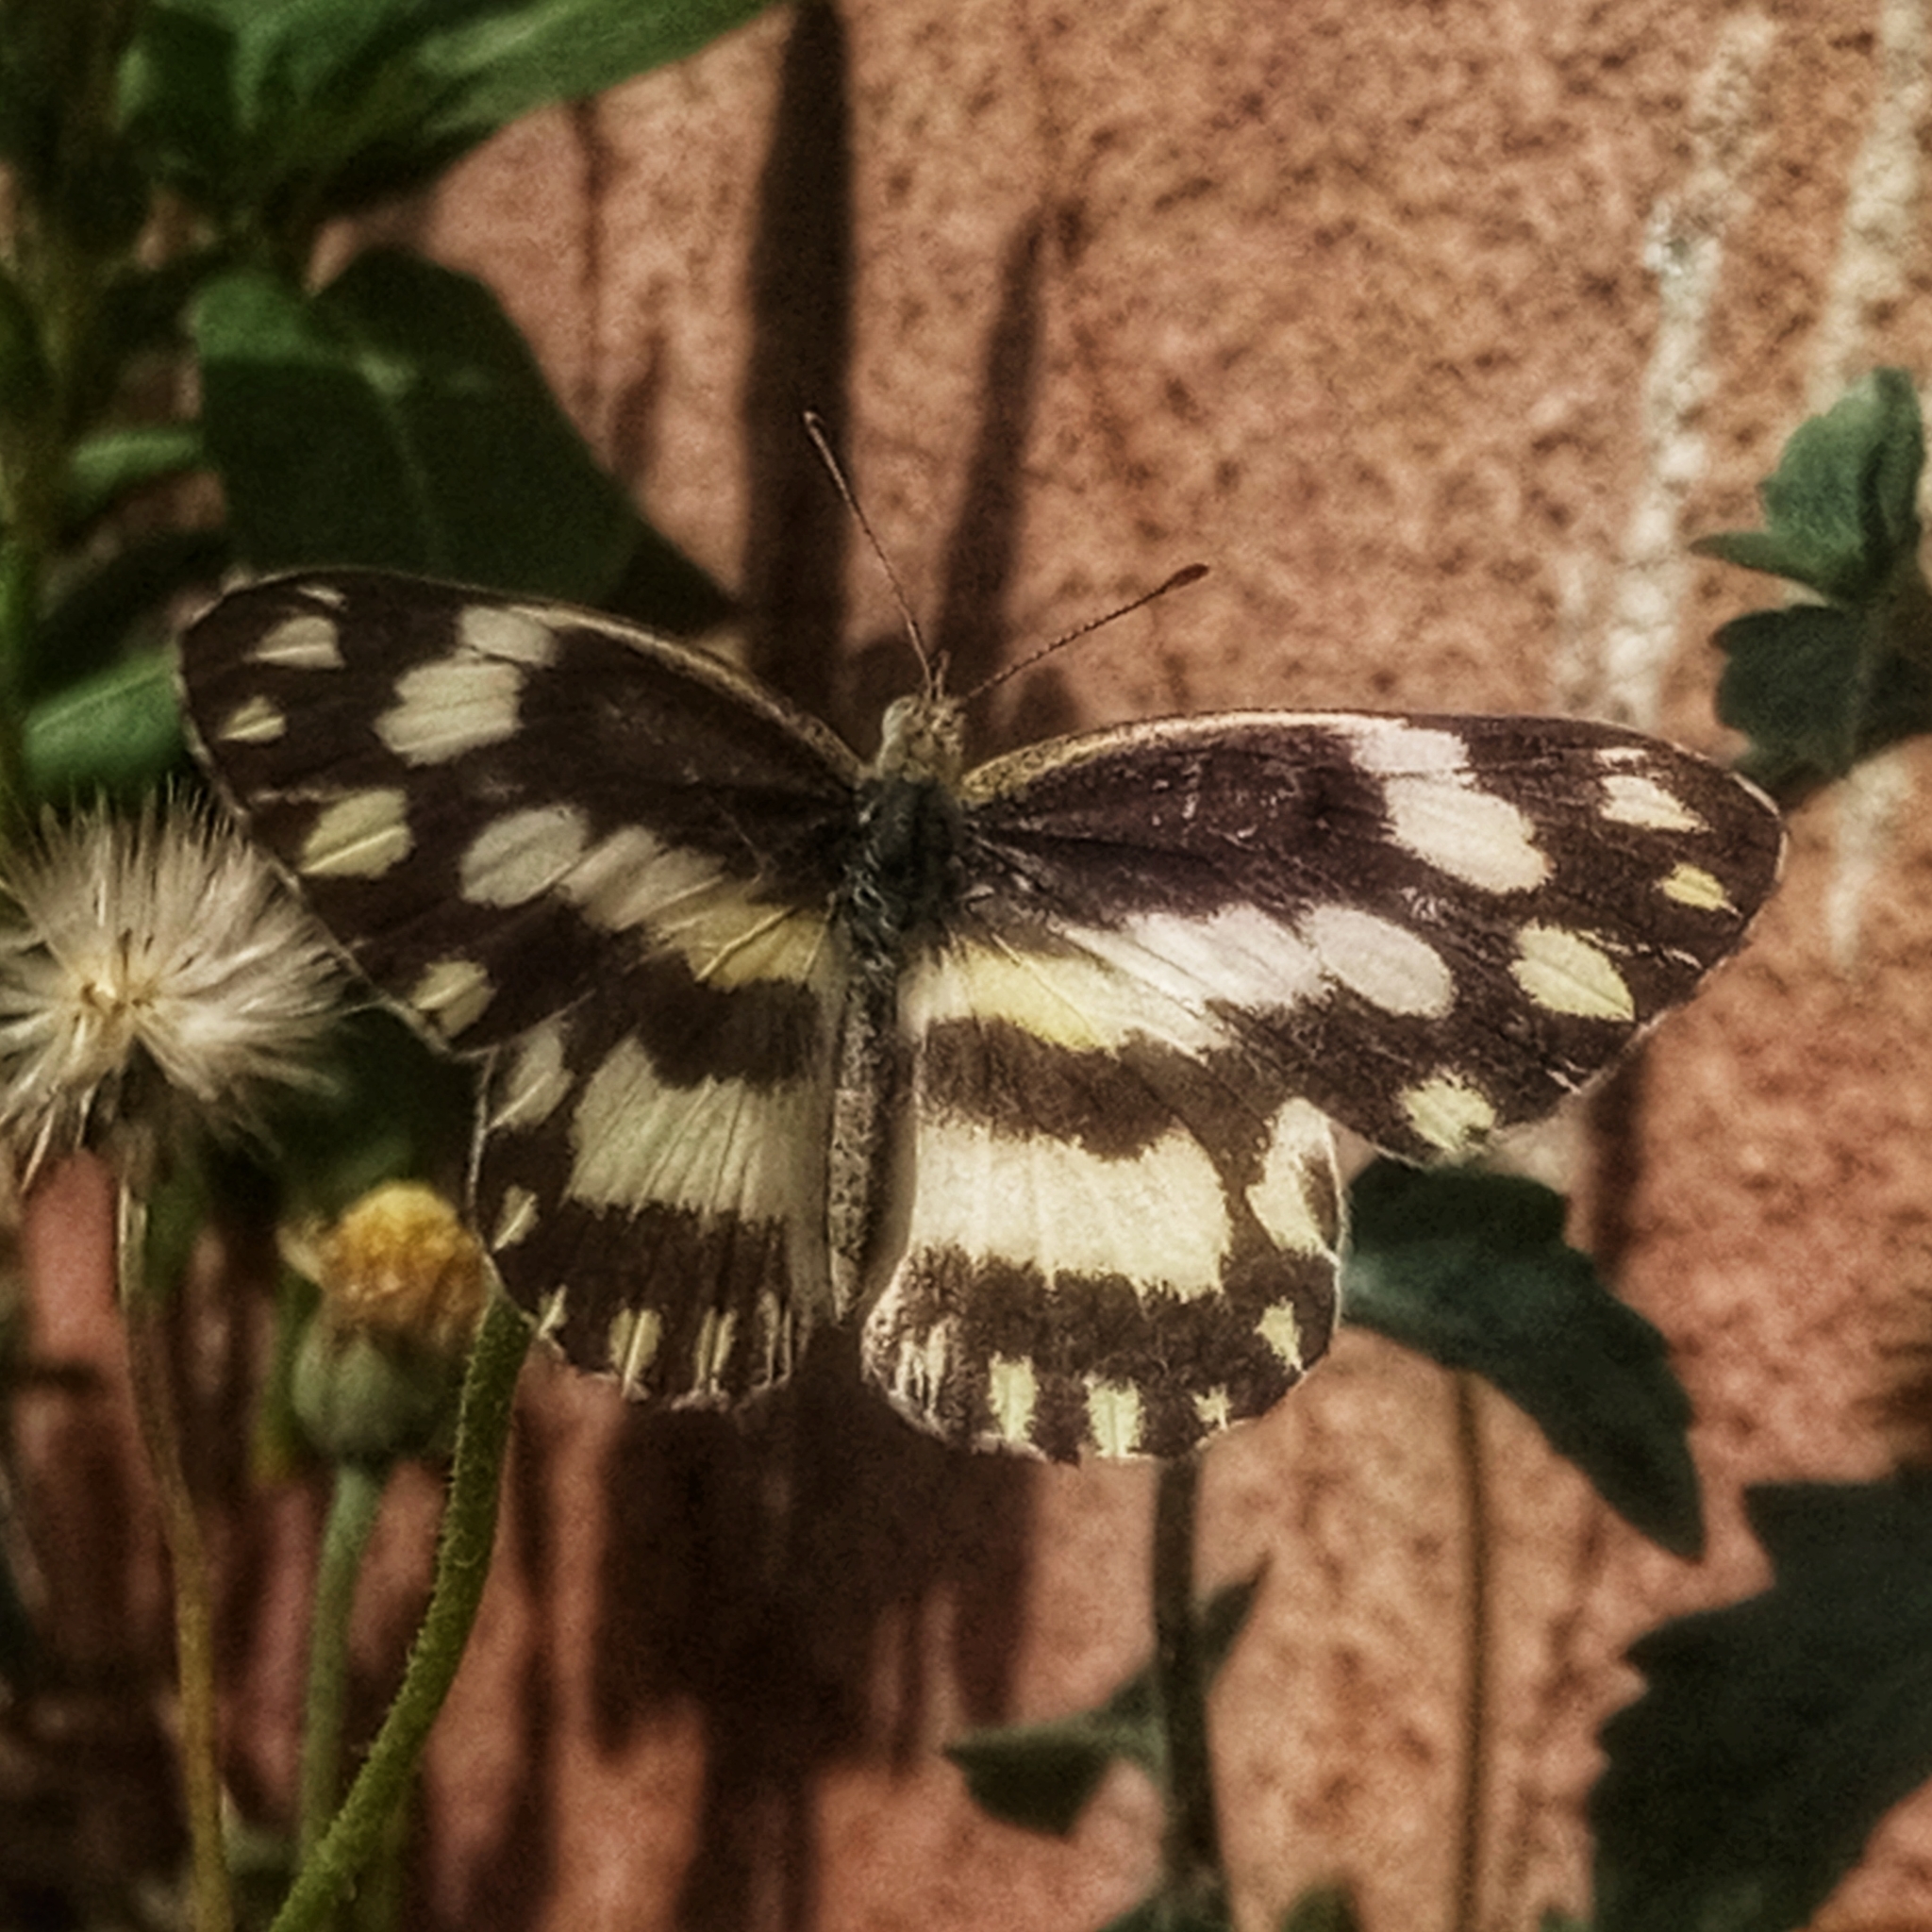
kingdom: Animalia
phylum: Arthropoda
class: Insecta
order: Lepidoptera
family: Pieridae
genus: Pinacopteryx
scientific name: Pinacopteryx eriphia
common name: Zebra white
